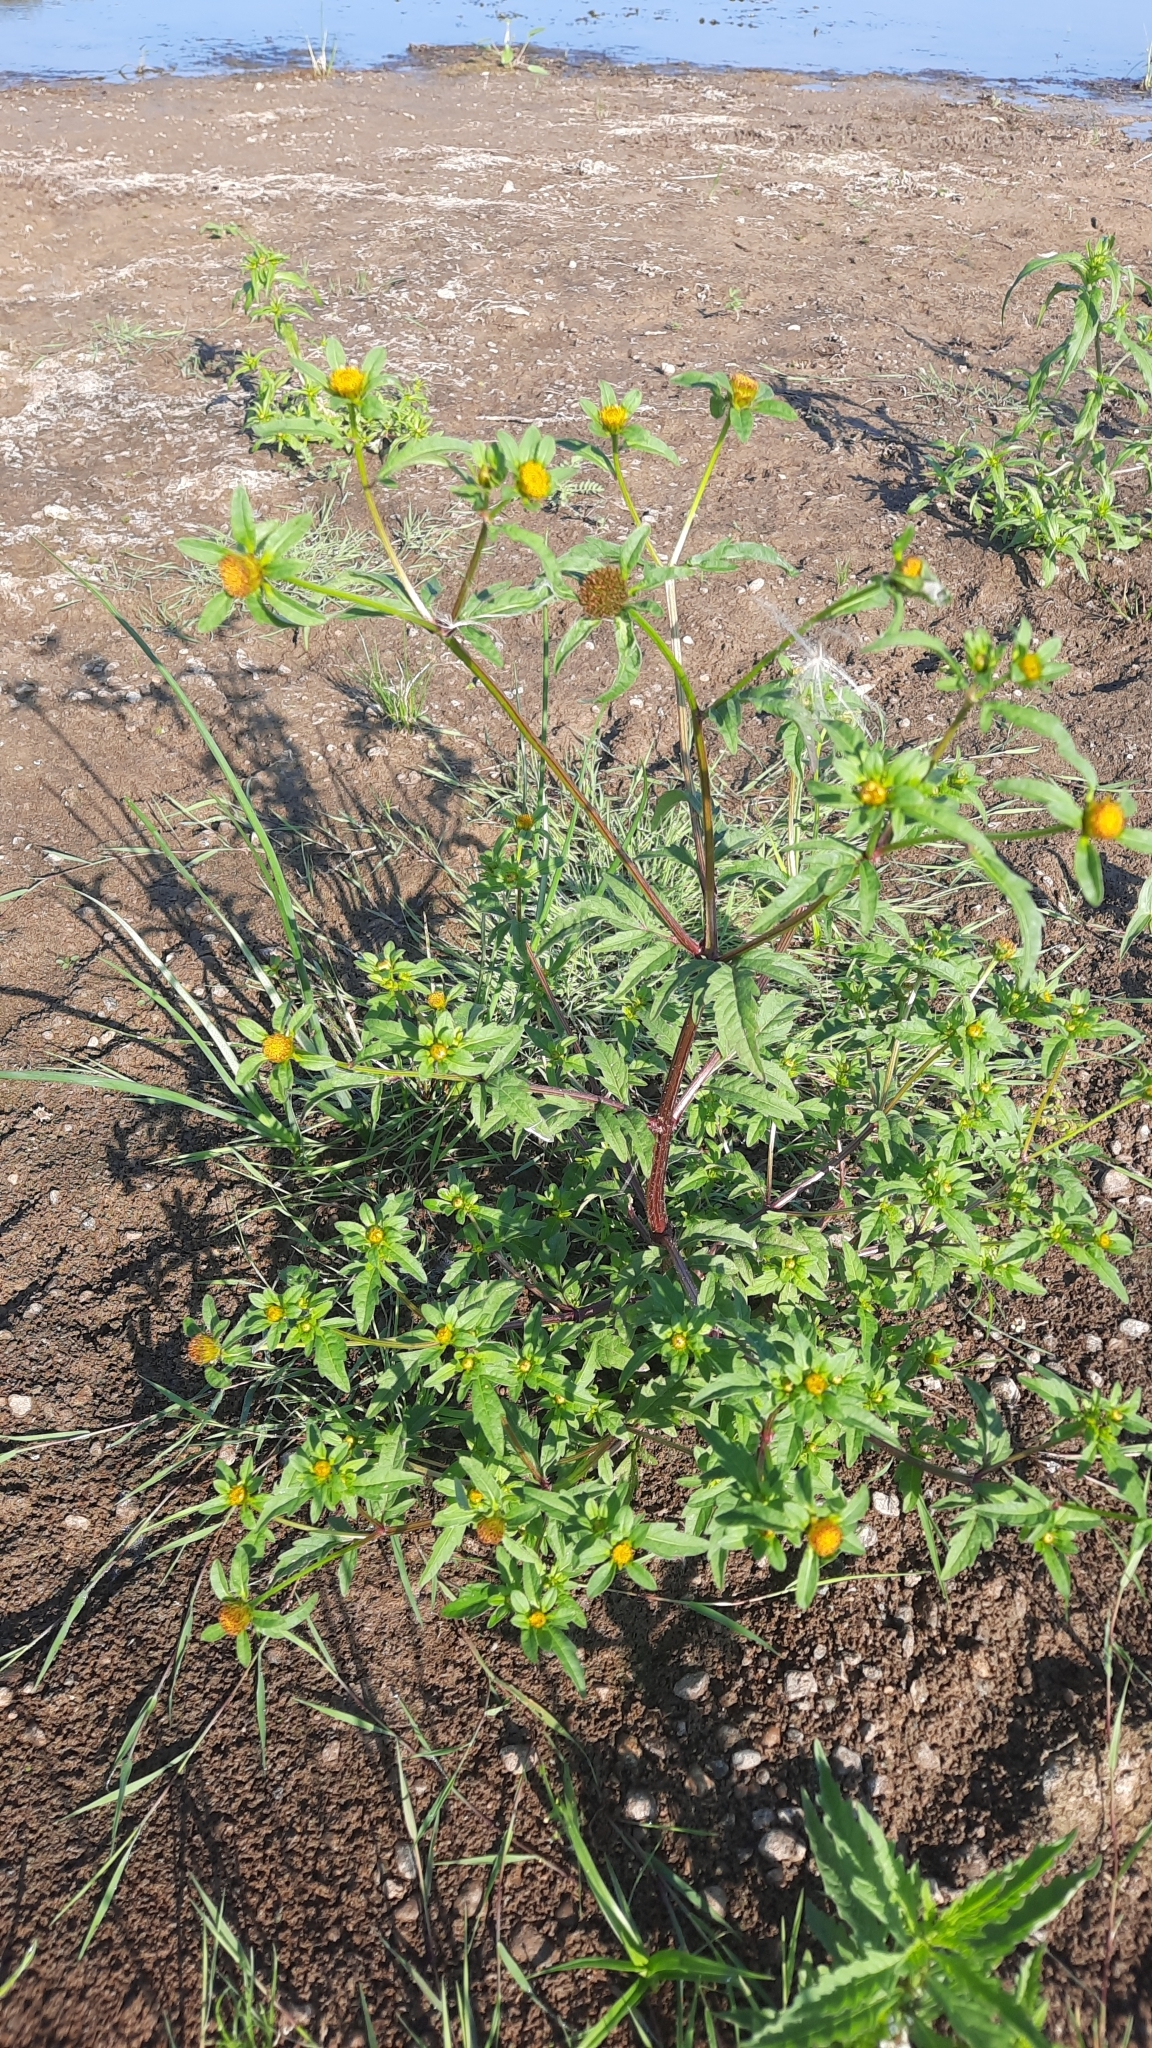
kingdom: Plantae
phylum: Tracheophyta
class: Magnoliopsida
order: Asterales
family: Asteraceae
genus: Bidens
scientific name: Bidens tripartita
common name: Trifid bur-marigold
